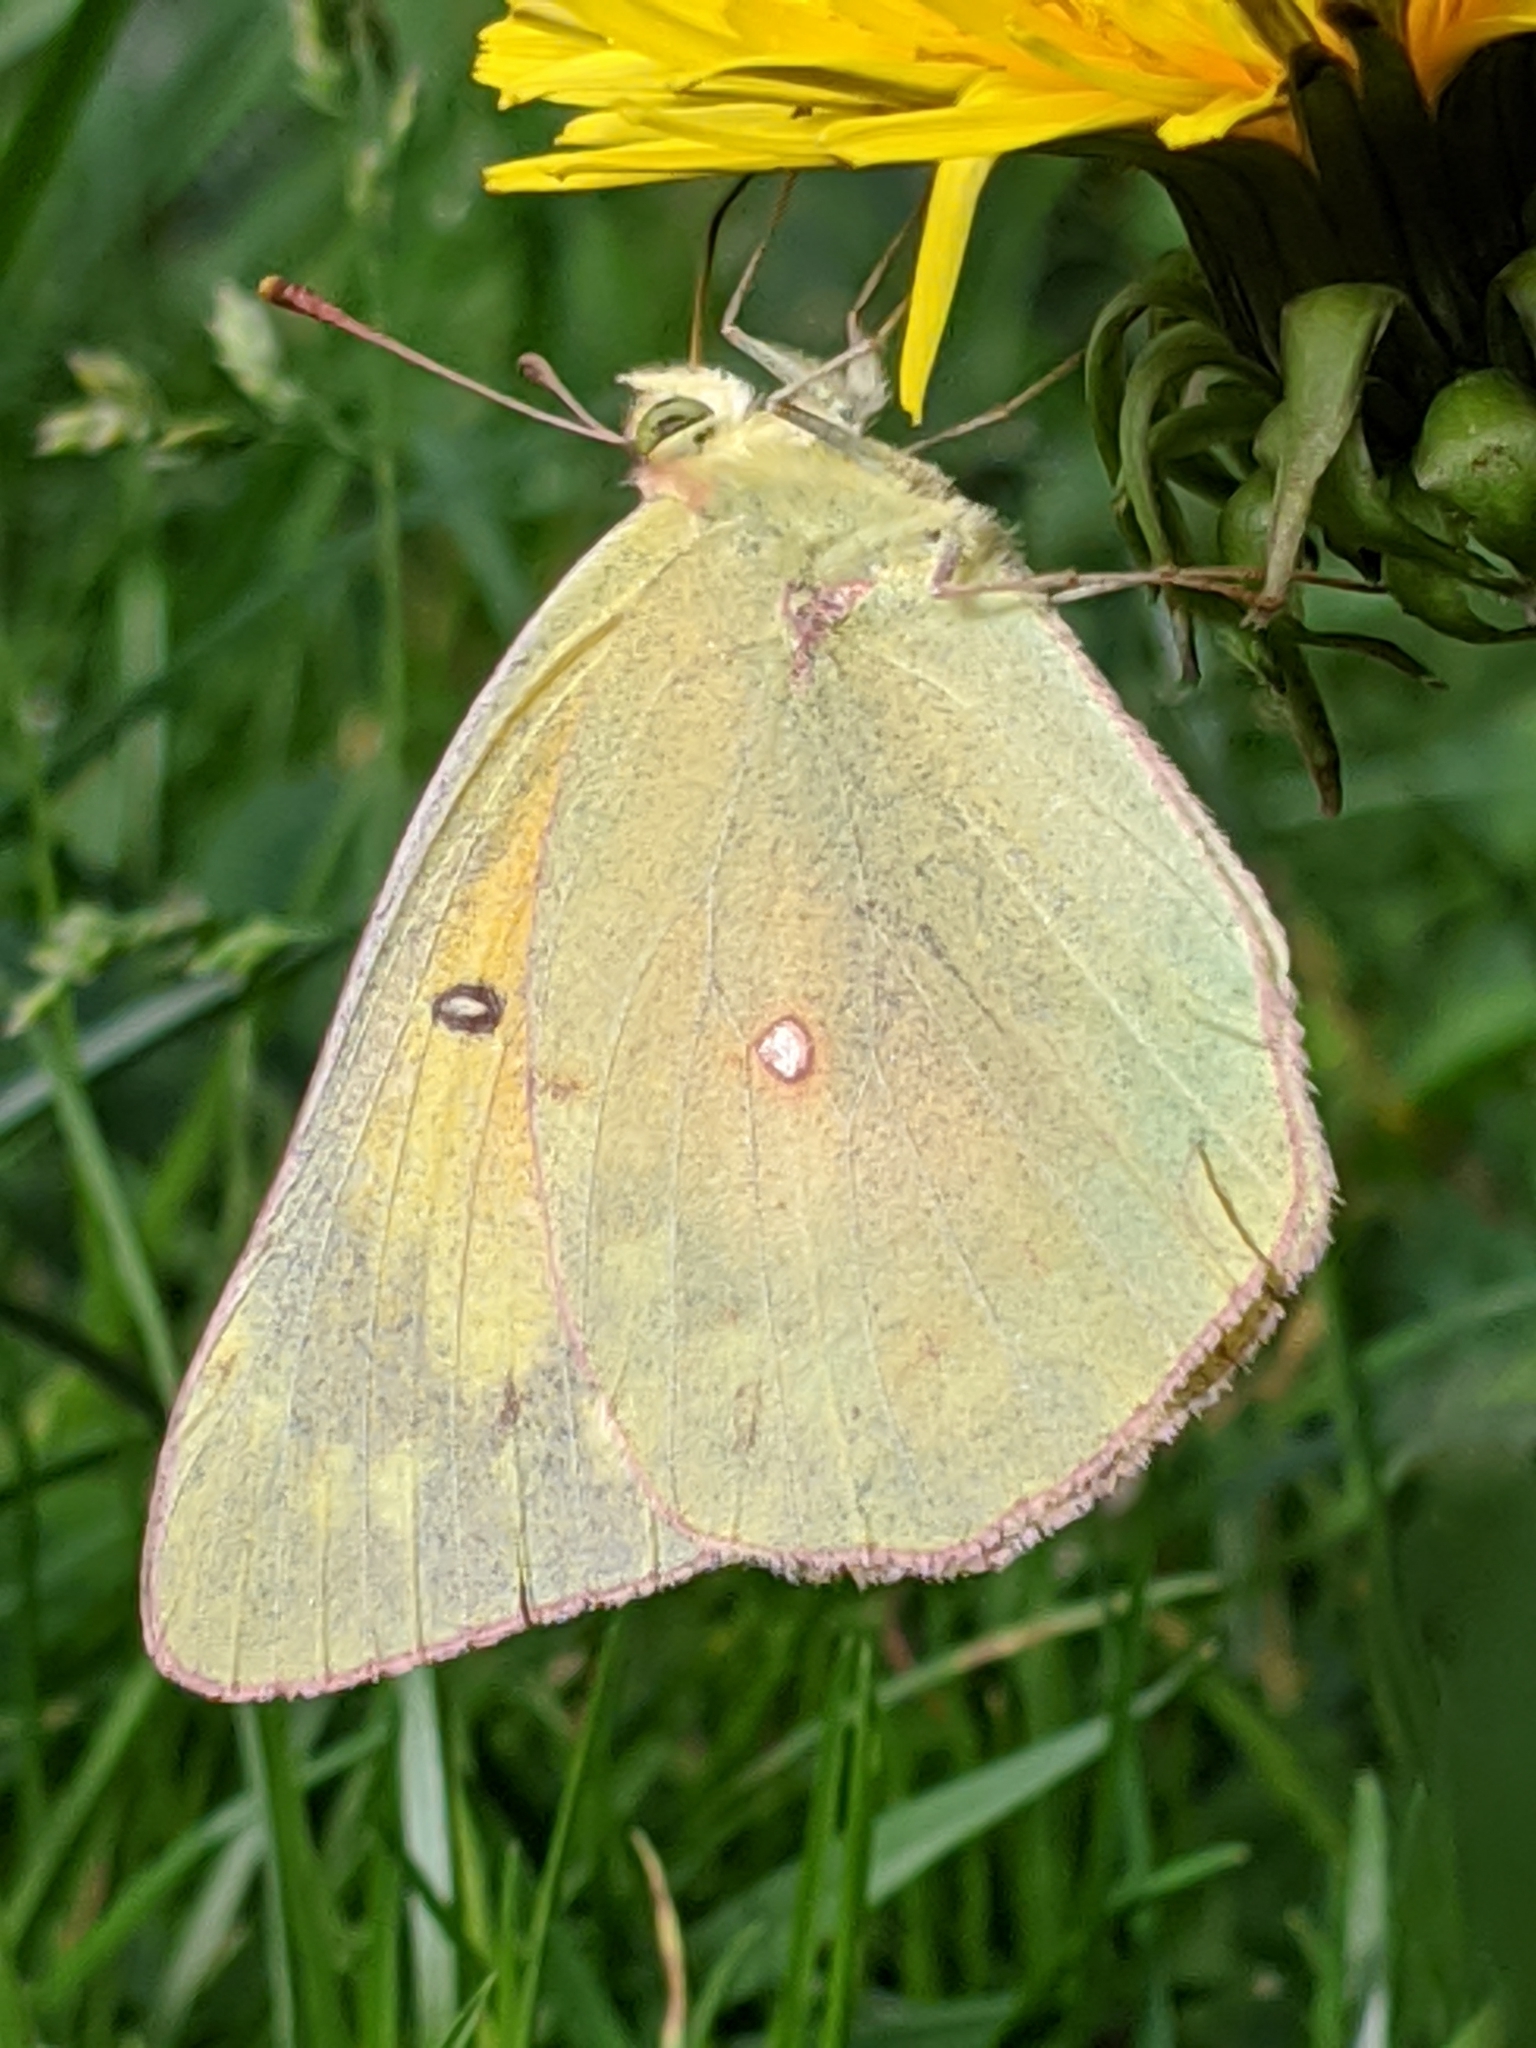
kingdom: Animalia
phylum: Arthropoda
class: Insecta
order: Lepidoptera
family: Pieridae
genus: Colias
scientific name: Colias eurytheme
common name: Alfalfa butterfly
